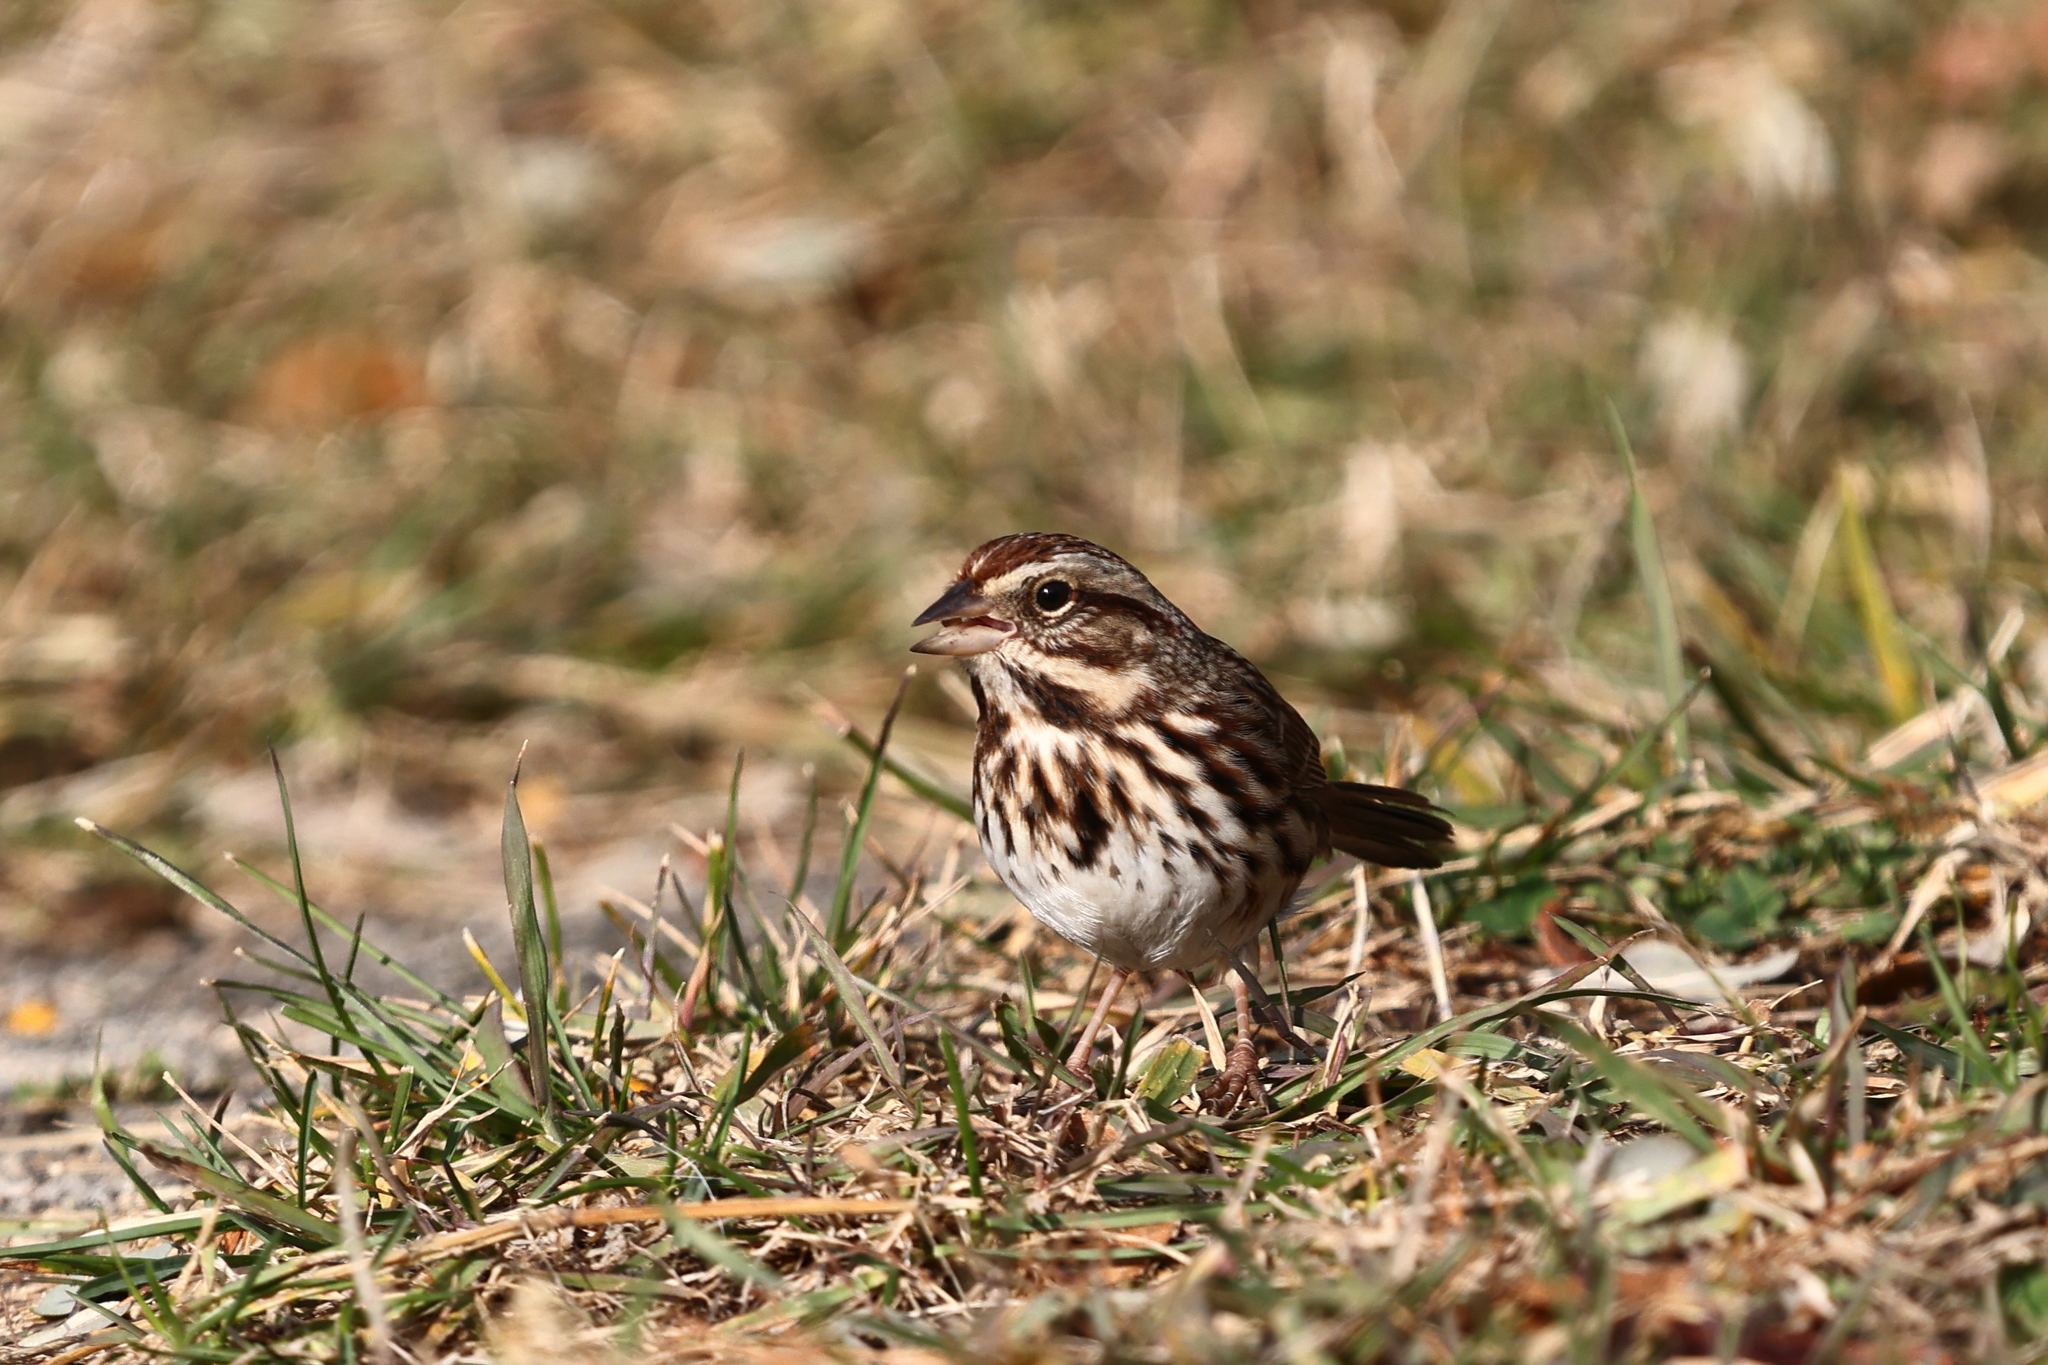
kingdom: Animalia
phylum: Chordata
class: Aves
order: Passeriformes
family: Passerellidae
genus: Melospiza
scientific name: Melospiza melodia
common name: Song sparrow
